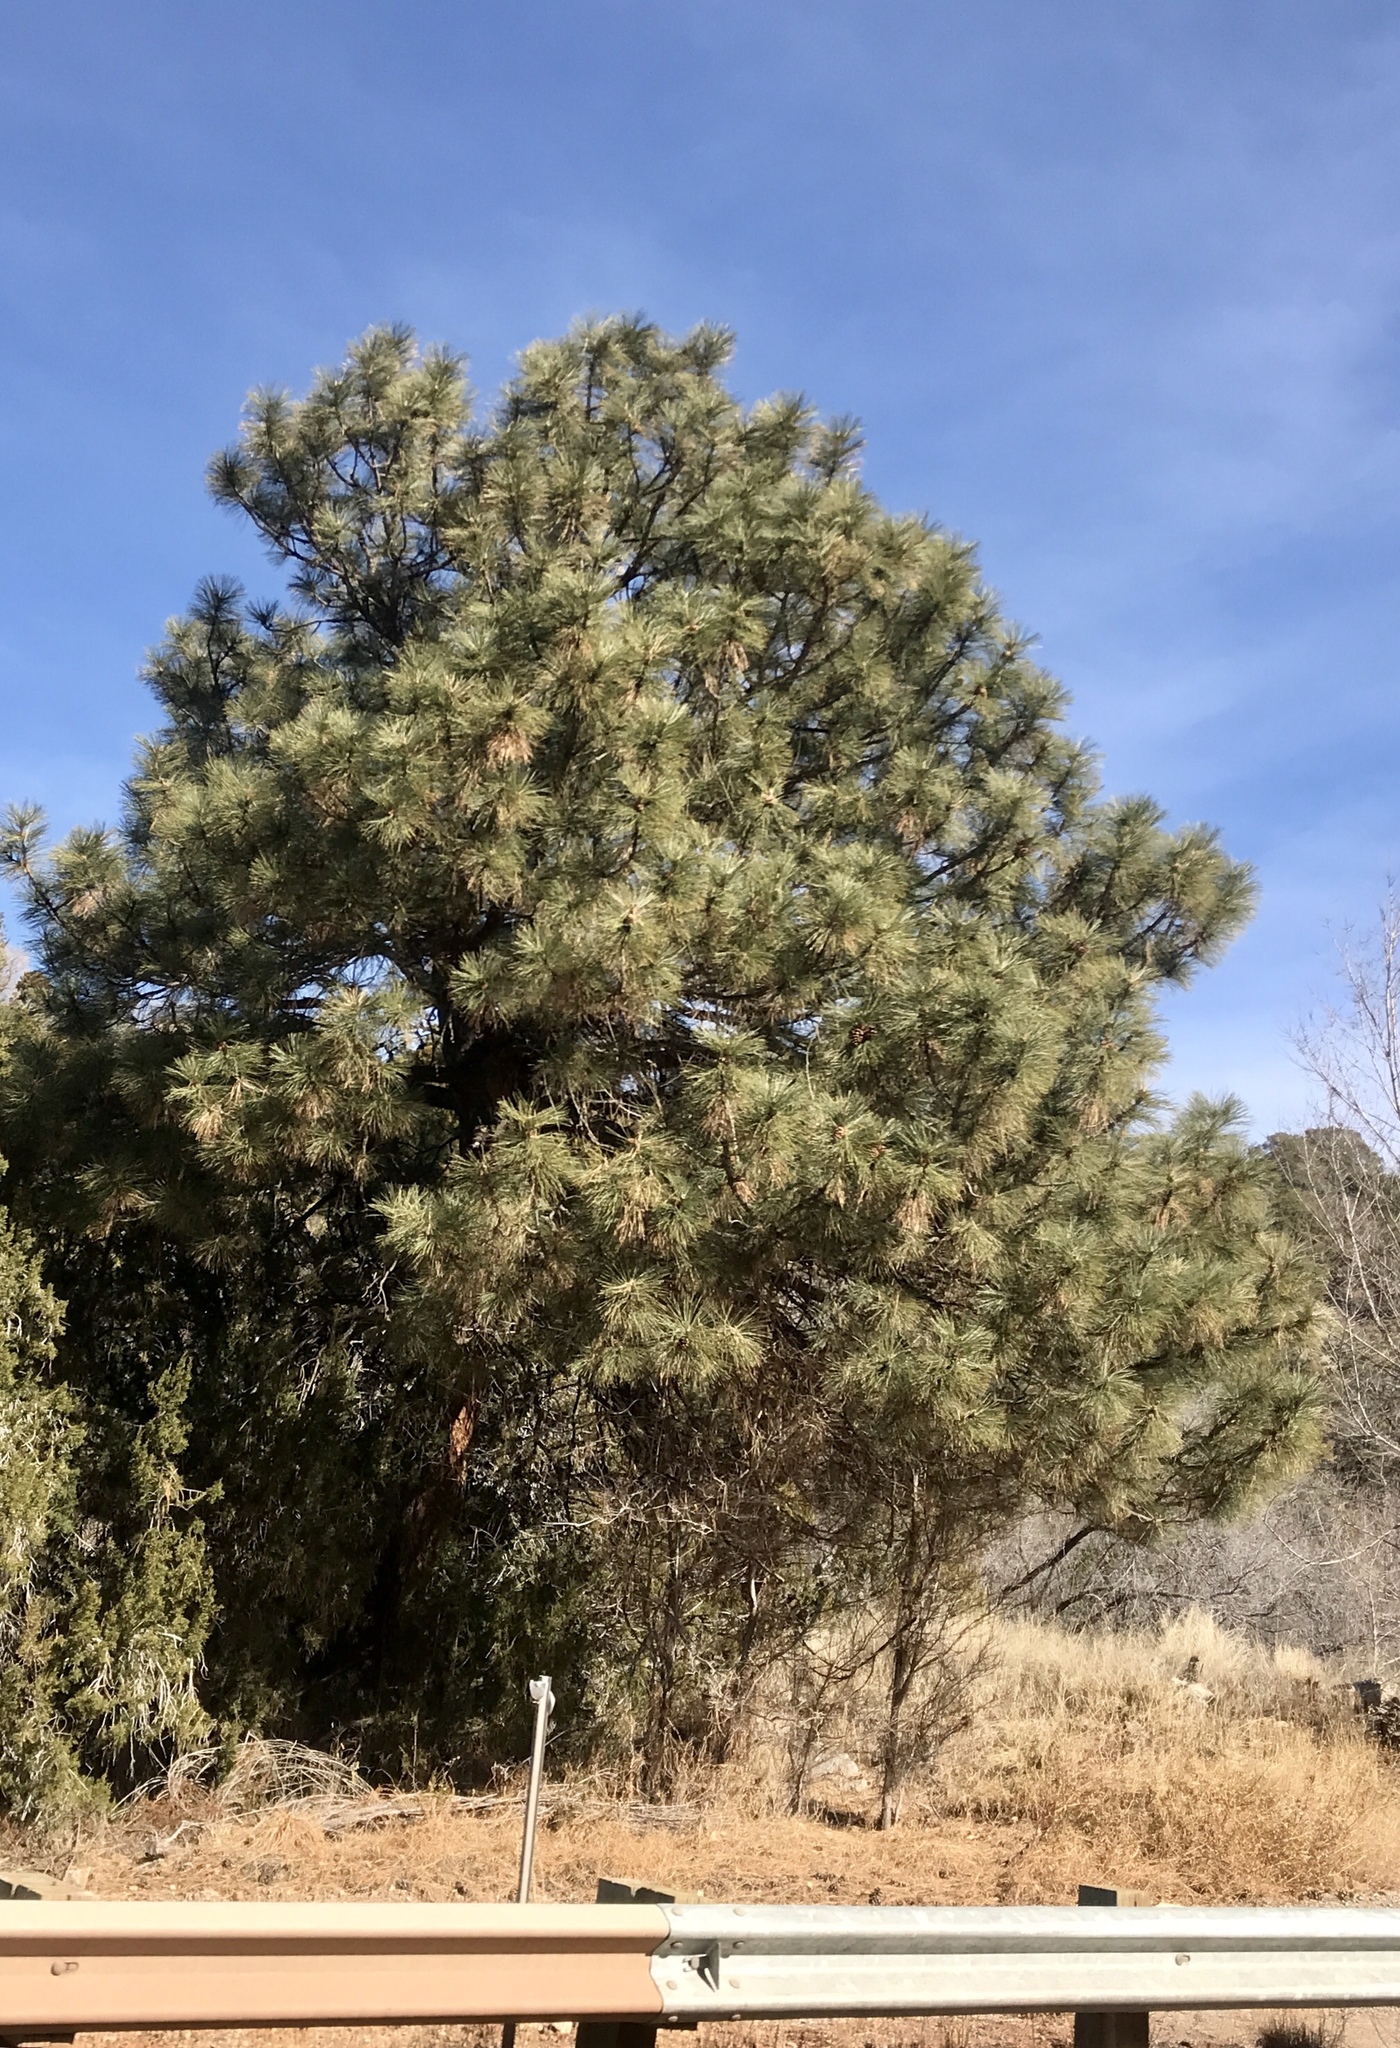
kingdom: Plantae
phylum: Tracheophyta
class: Pinopsida
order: Pinales
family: Pinaceae
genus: Pinus
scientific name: Pinus ponderosa
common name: Western yellow-pine
